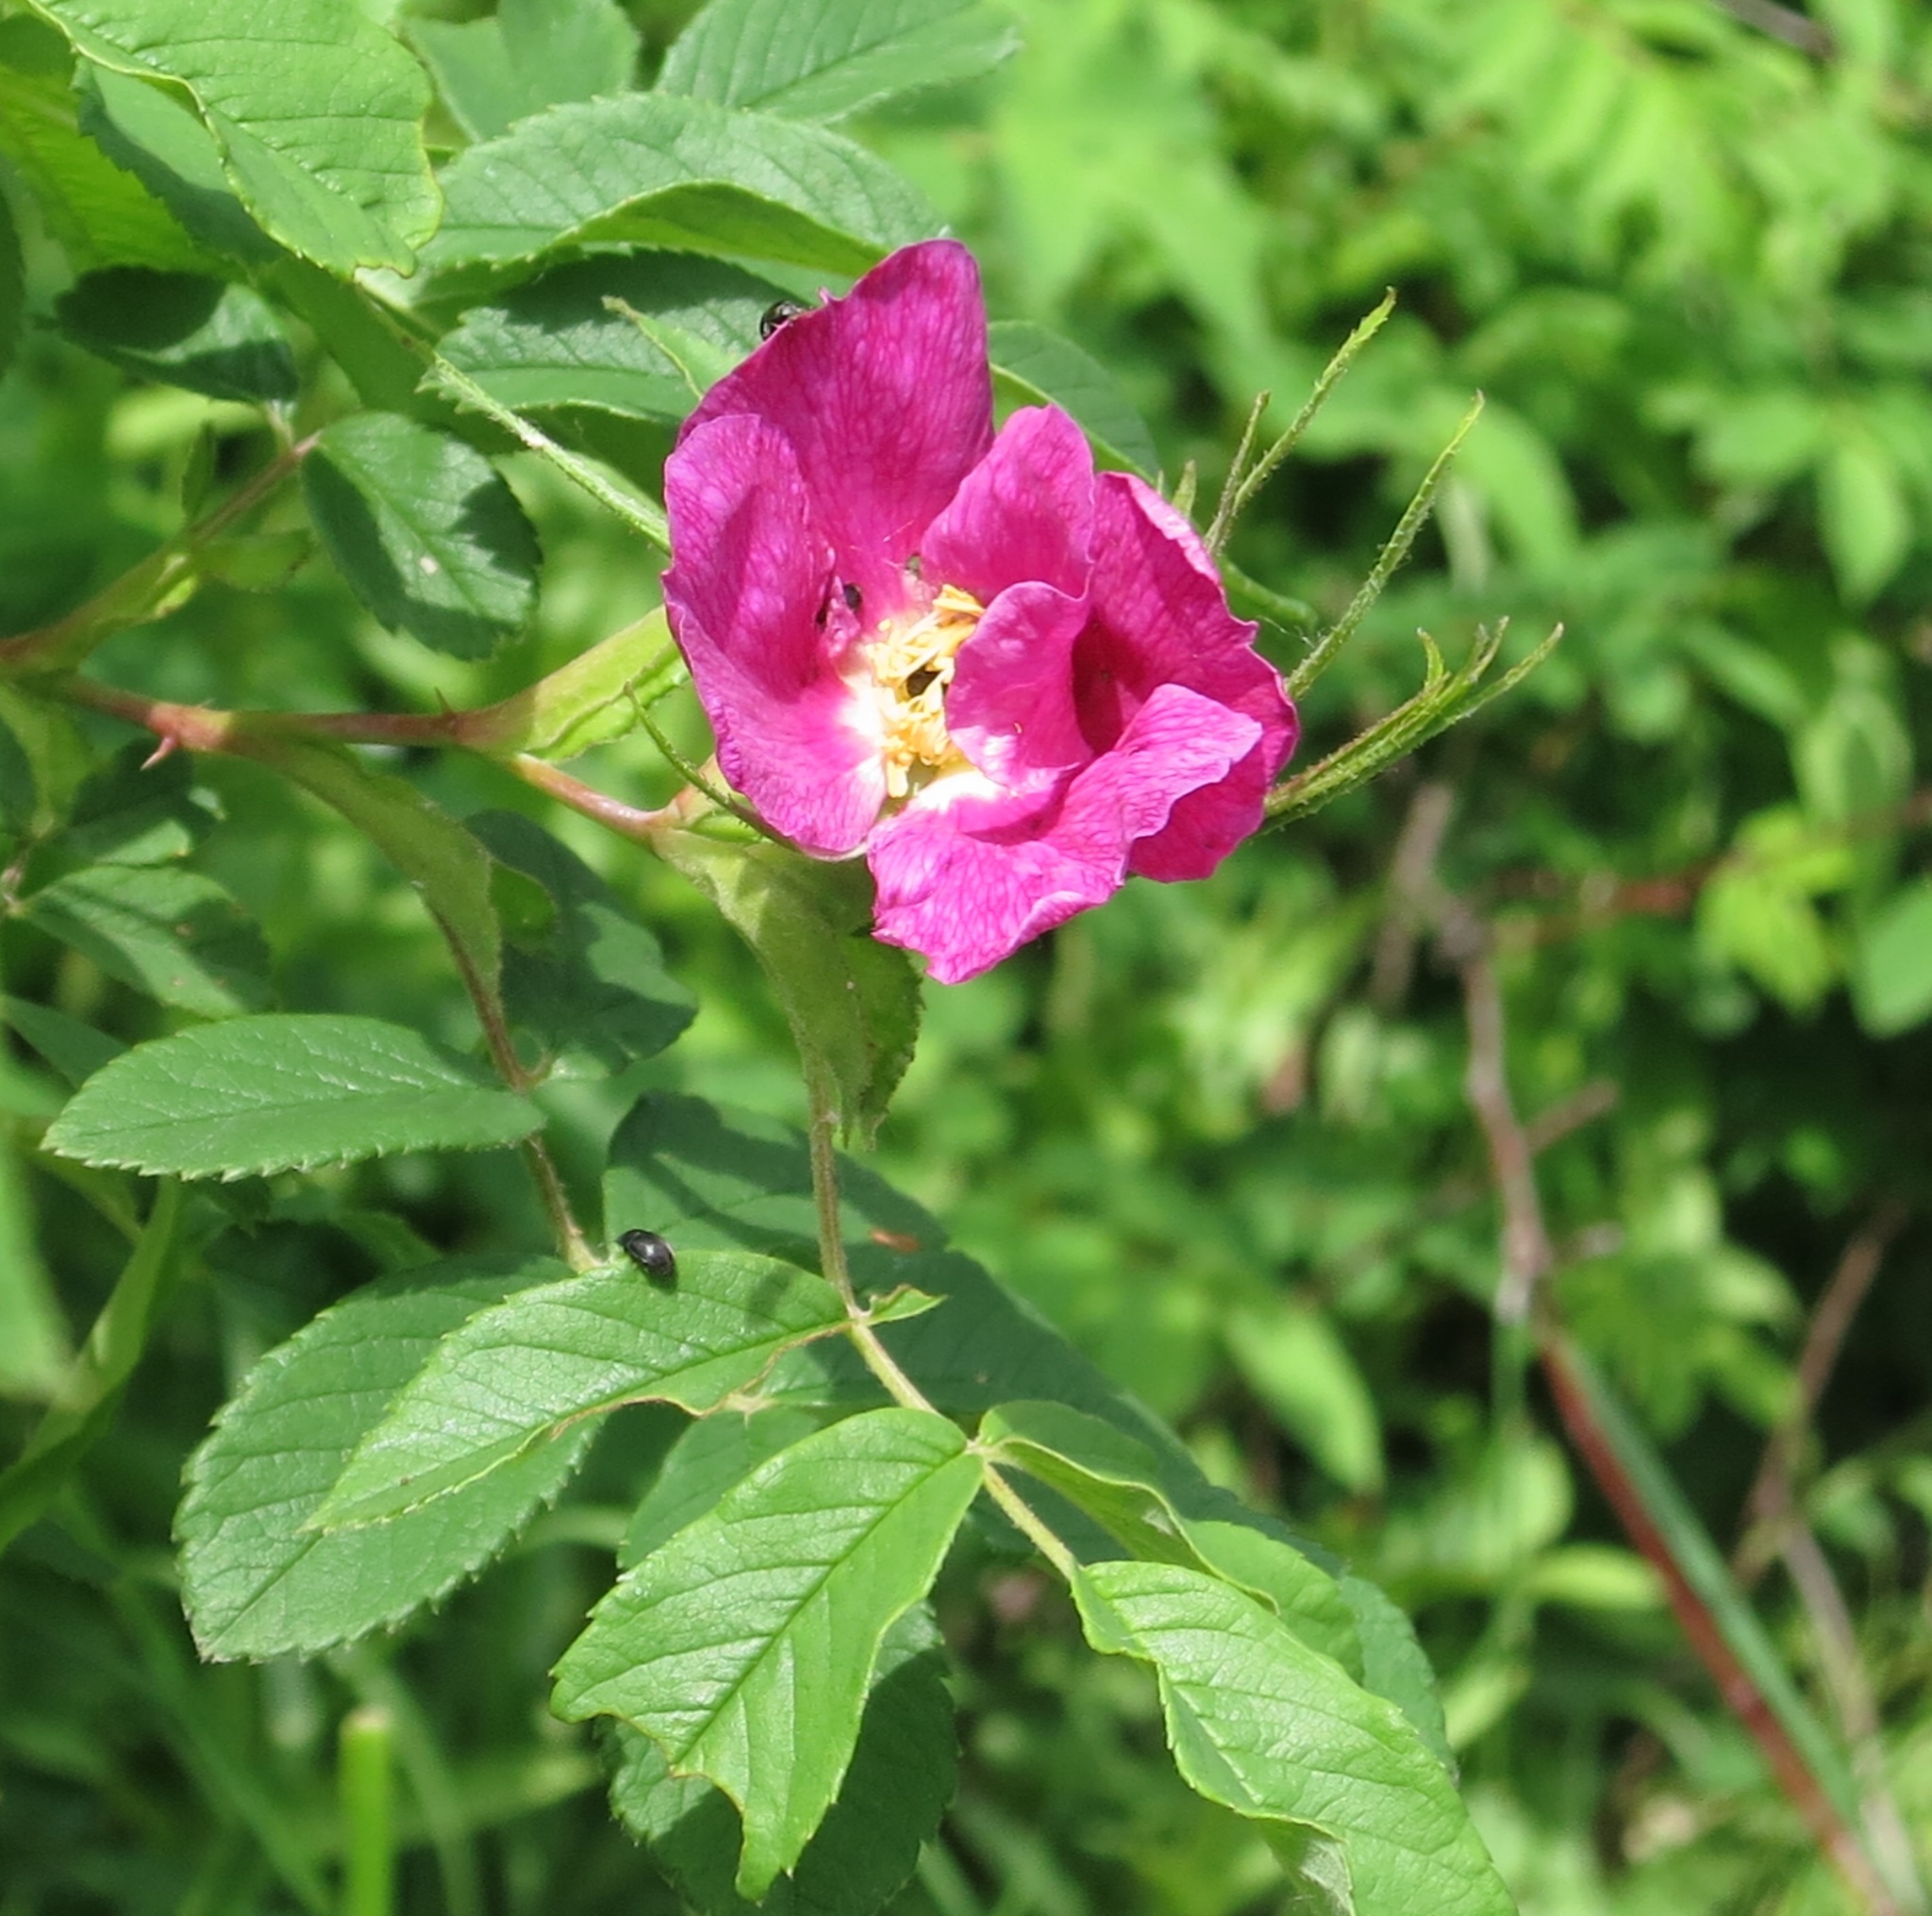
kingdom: Plantae
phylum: Tracheophyta
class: Magnoliopsida
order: Rosales
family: Rosaceae
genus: Rosa
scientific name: Rosa davurica
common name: Amur rose
